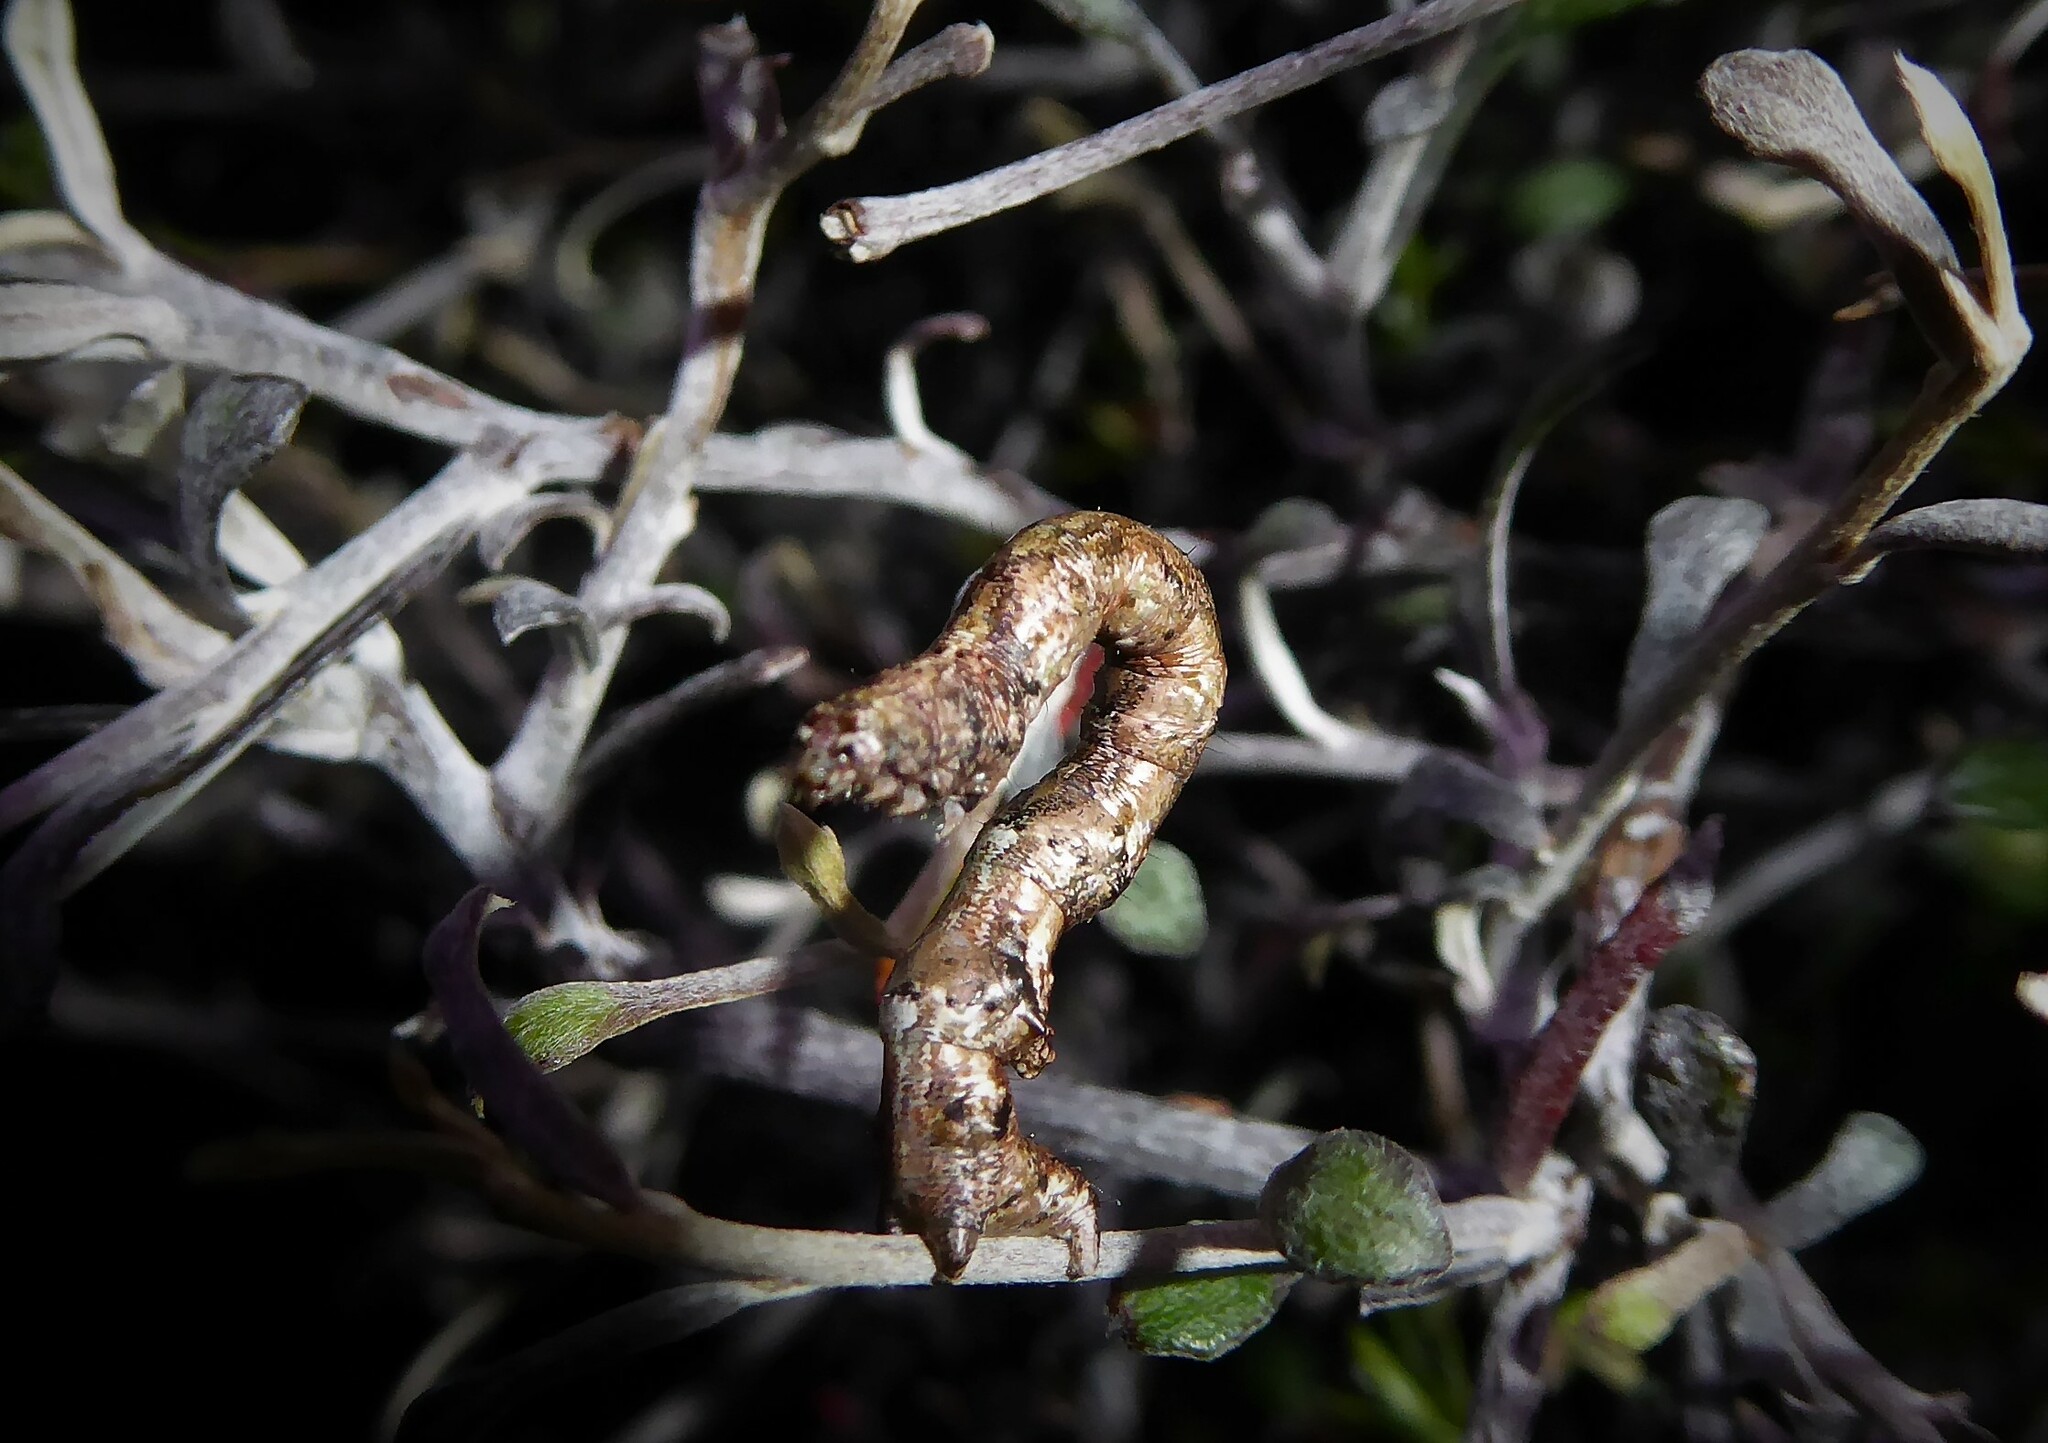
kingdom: Animalia
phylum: Arthropoda
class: Insecta
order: Lepidoptera
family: Geometridae
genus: Horisme
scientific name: Horisme suppressaria
